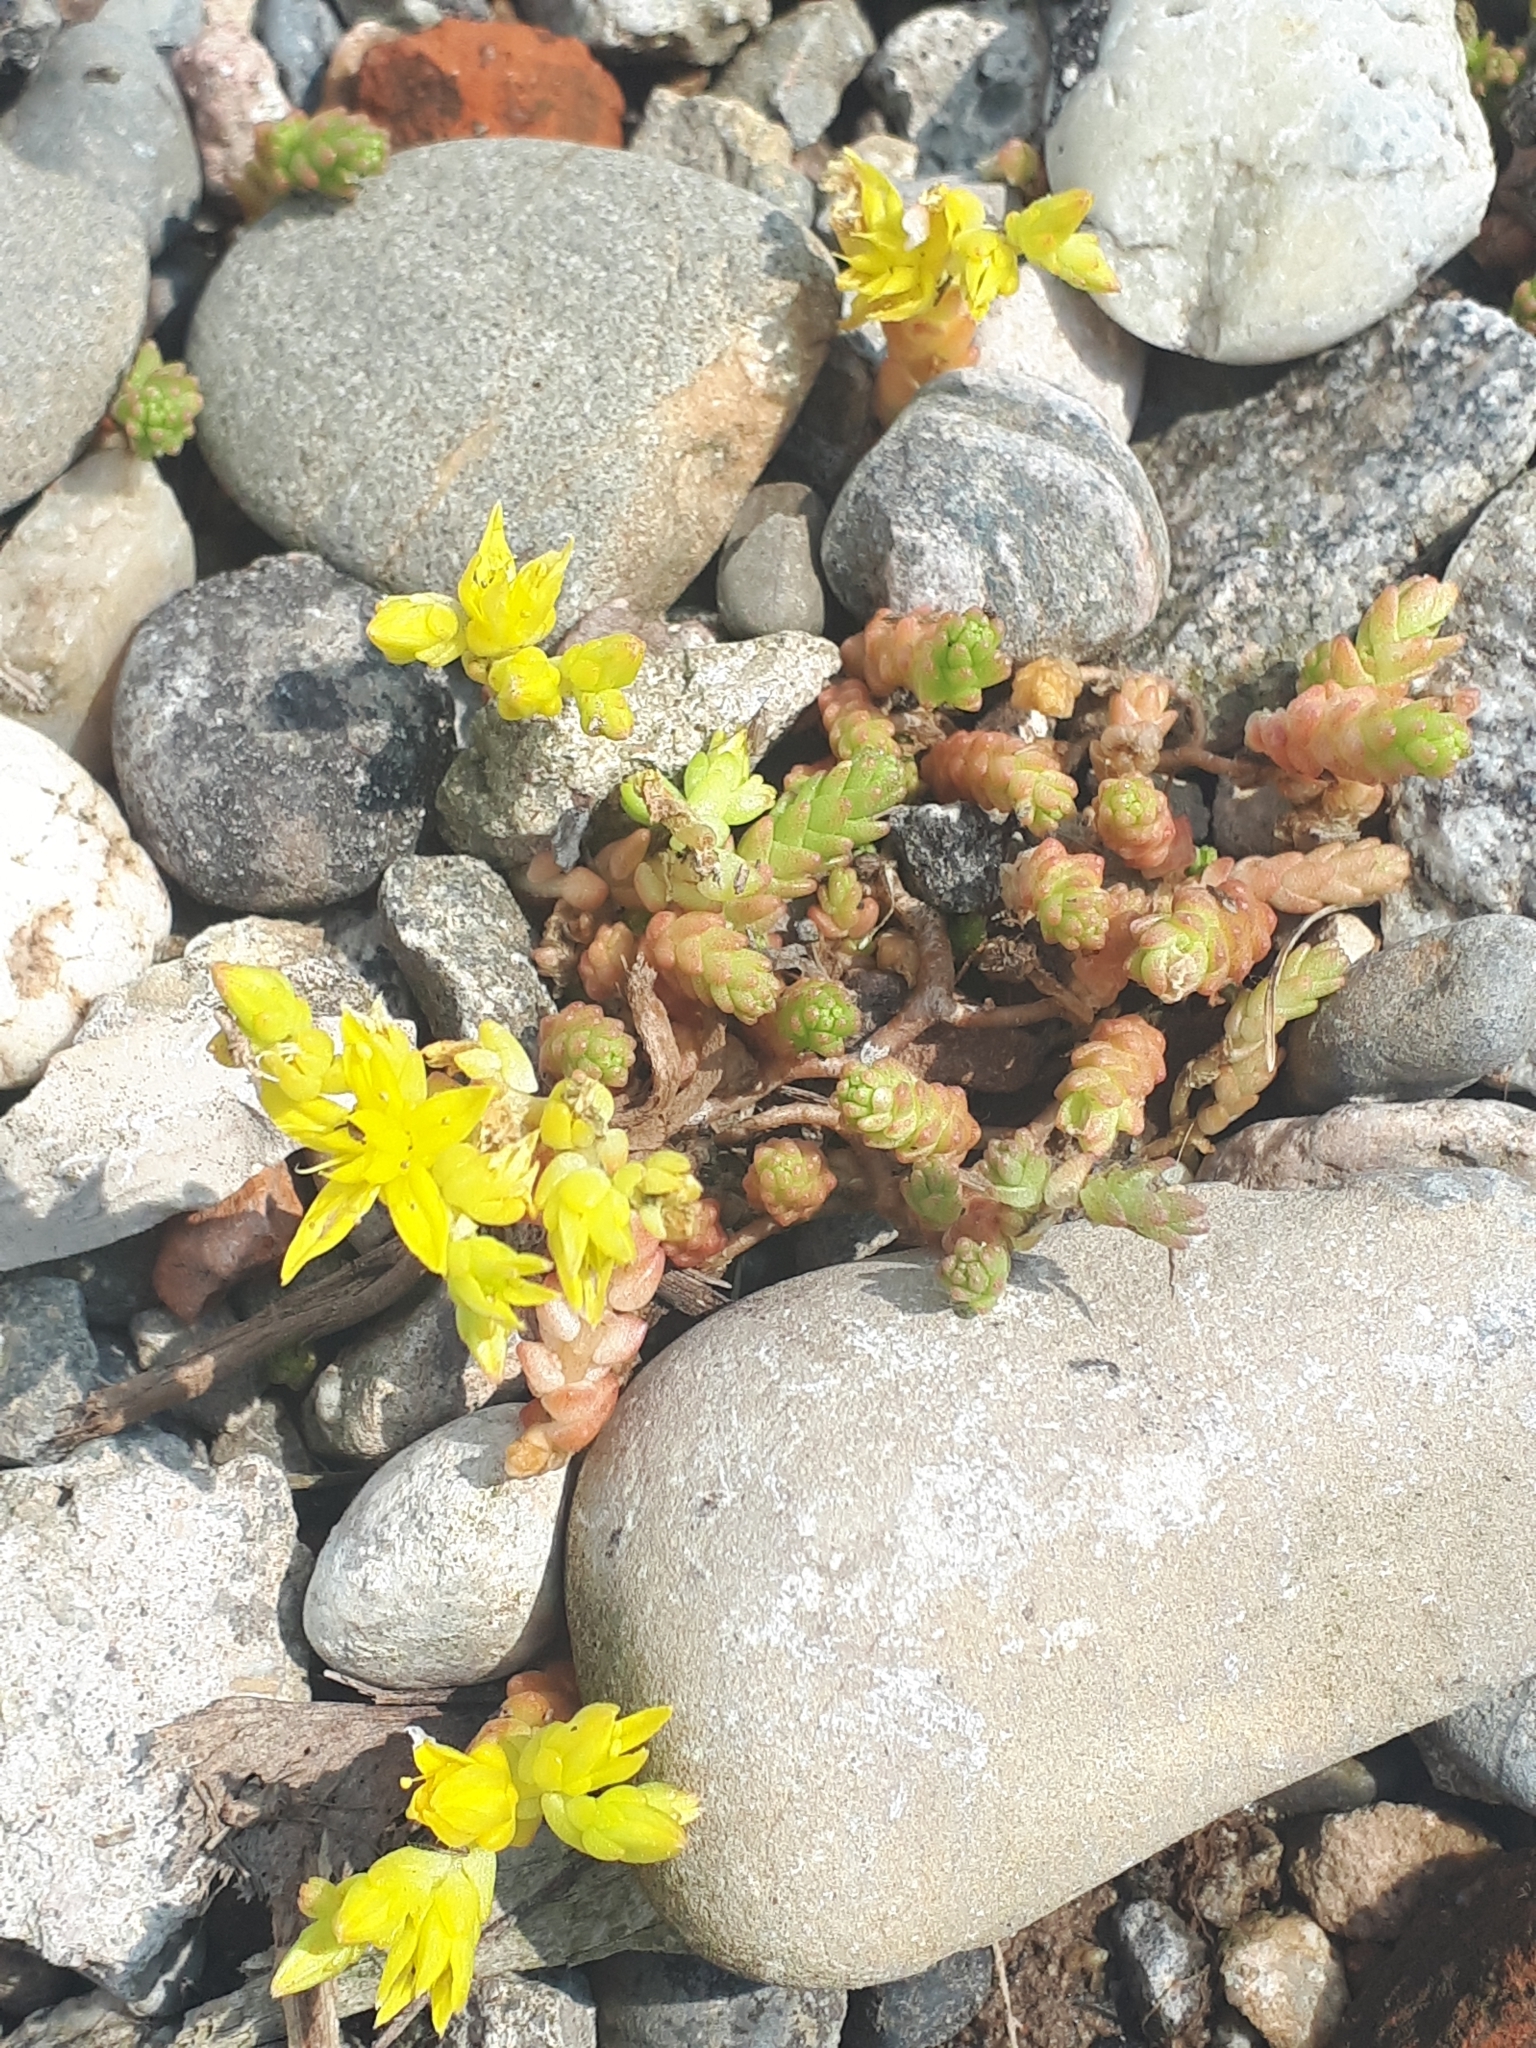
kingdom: Plantae
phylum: Tracheophyta
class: Magnoliopsida
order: Saxifragales
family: Crassulaceae
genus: Sedum
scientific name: Sedum acre
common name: Biting stonecrop
